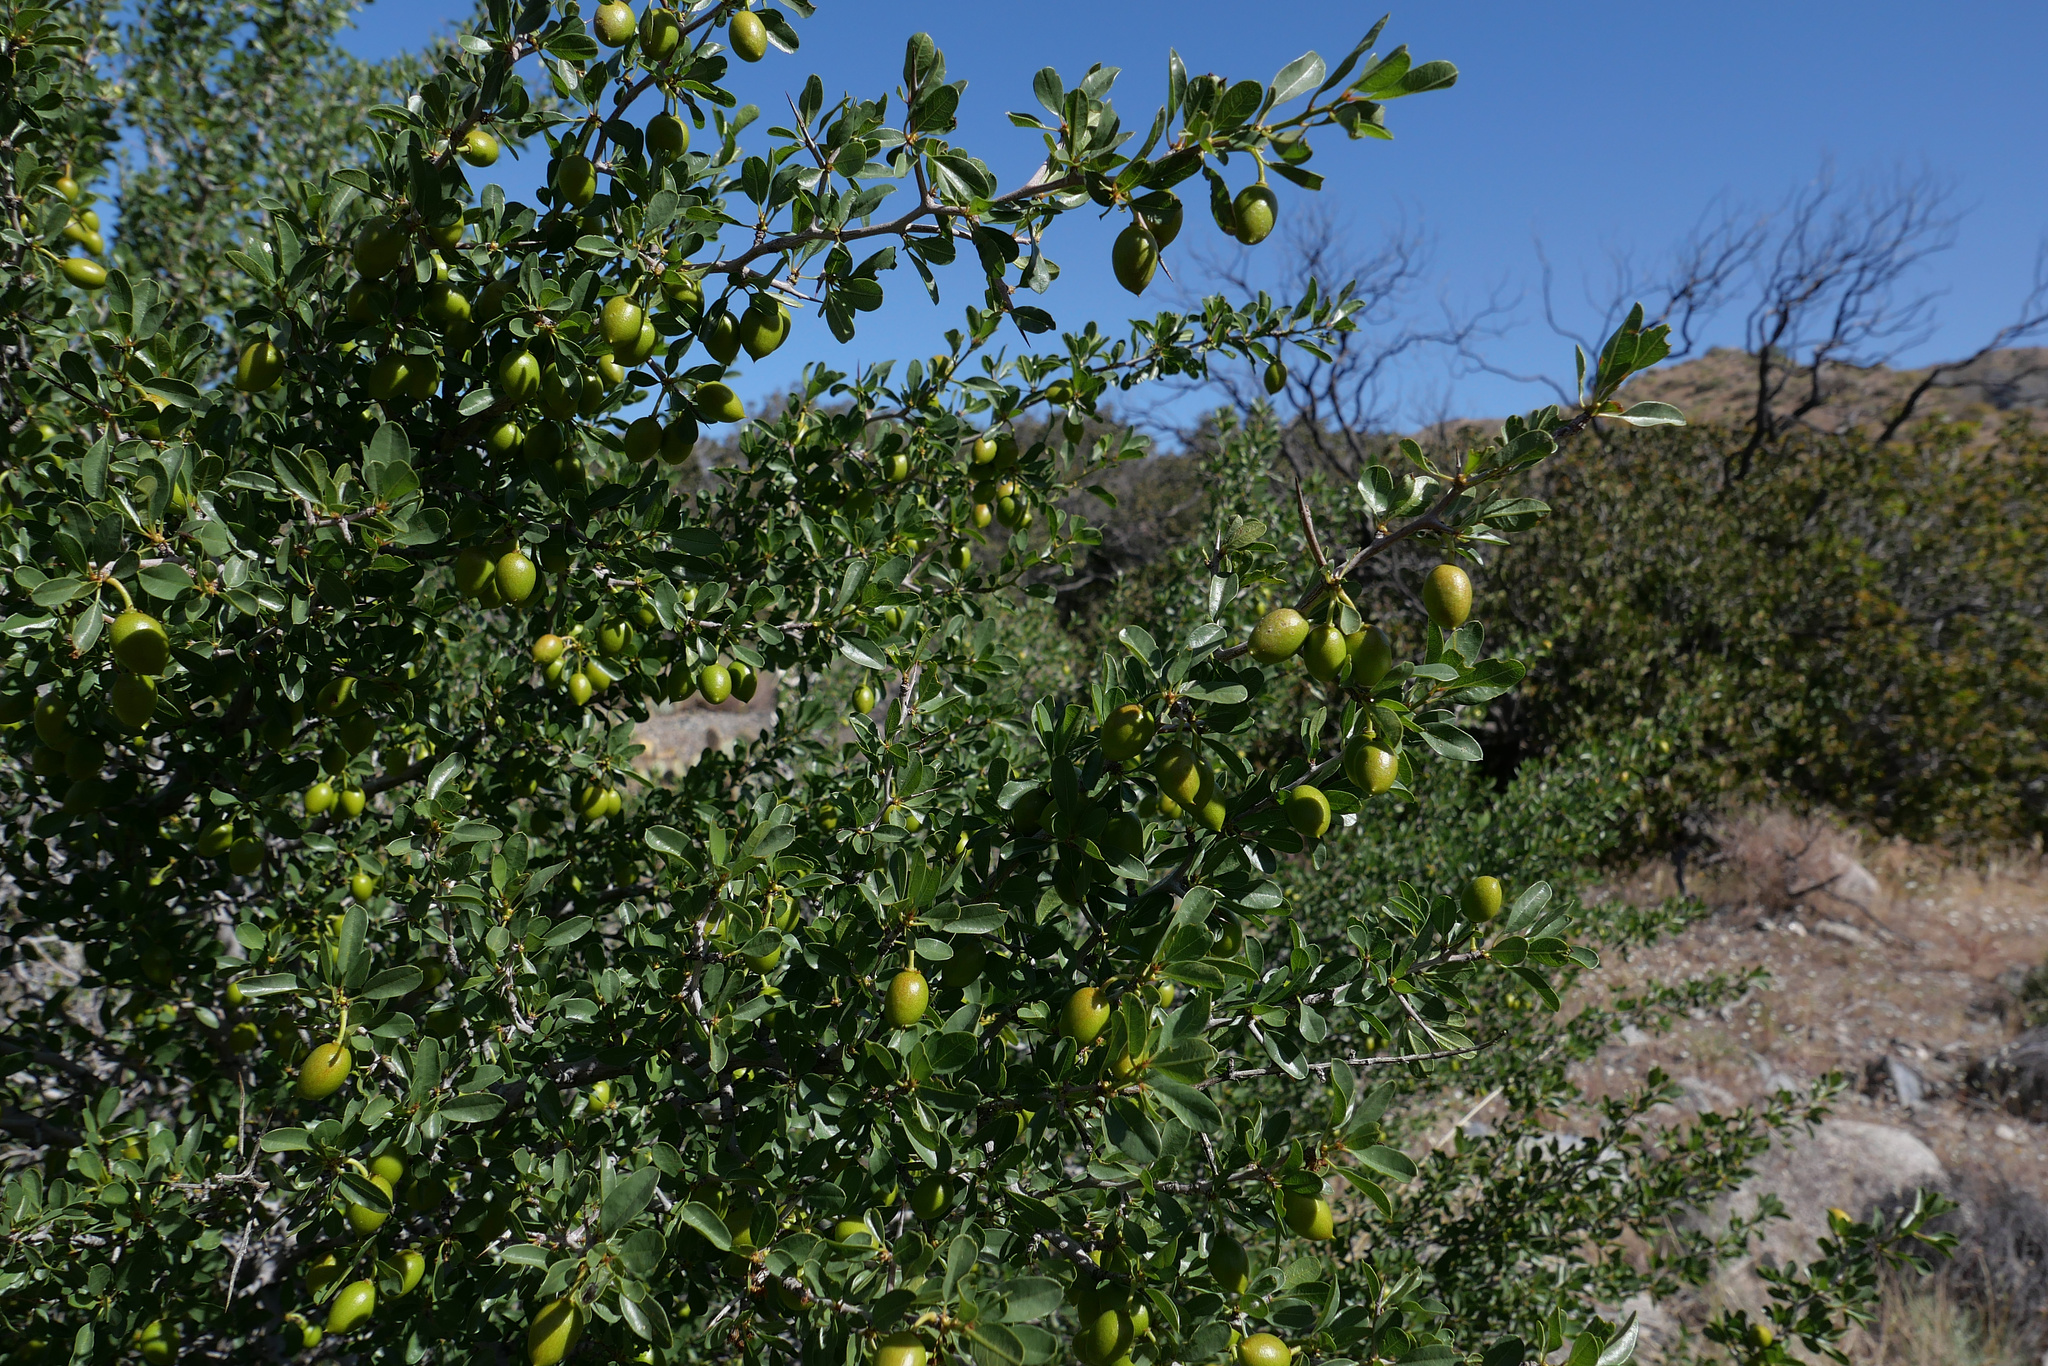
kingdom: Plantae
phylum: Tracheophyta
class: Magnoliopsida
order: Rosales
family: Rhamnaceae
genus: Pseudoziziphus
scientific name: Pseudoziziphus parryi
